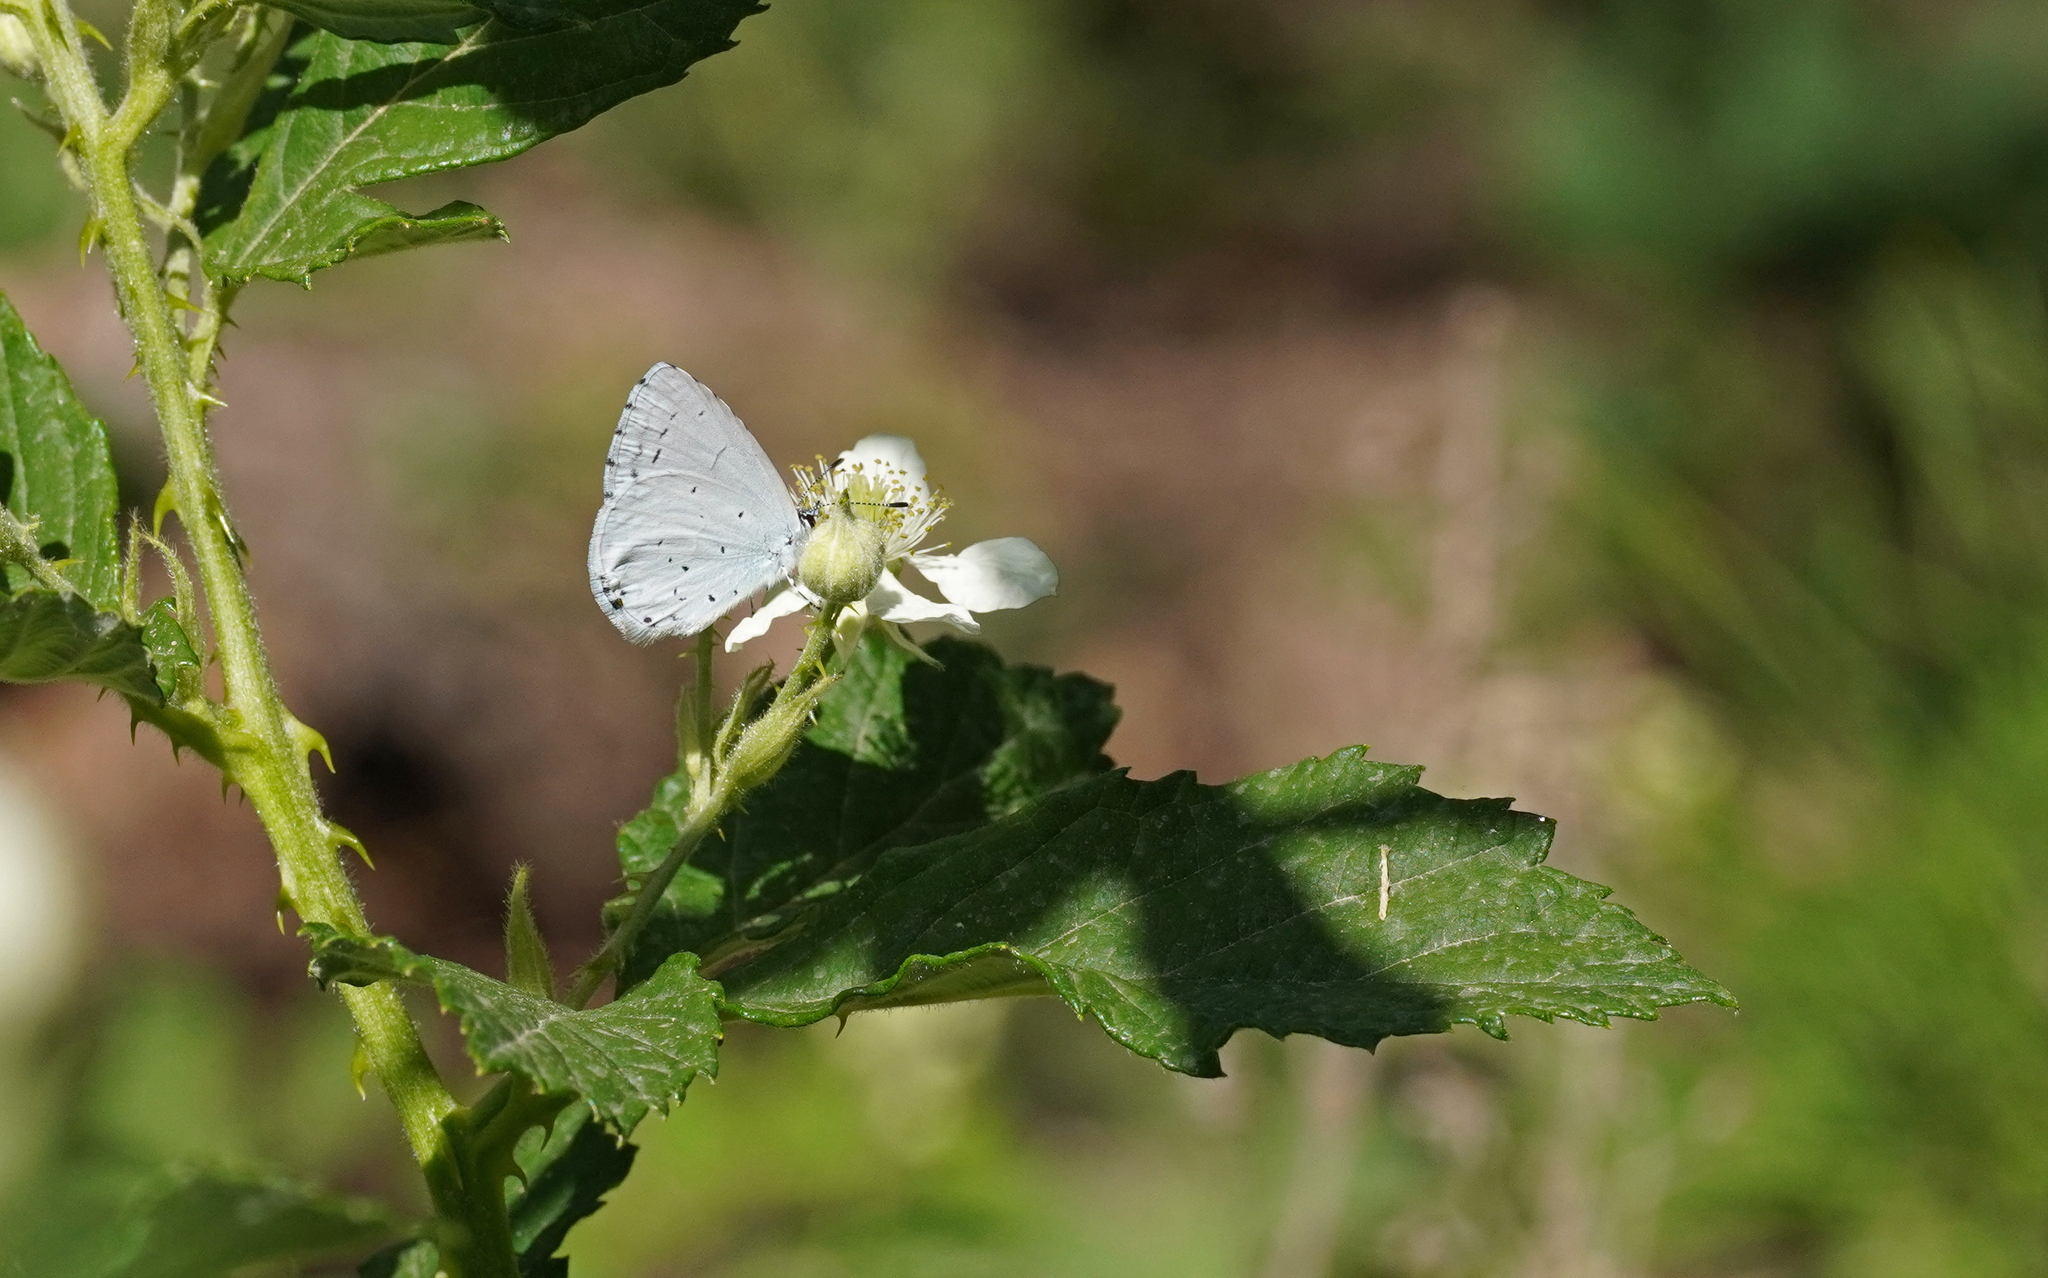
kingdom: Animalia
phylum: Arthropoda
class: Insecta
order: Lepidoptera
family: Lycaenidae
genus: Celastrina
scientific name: Celastrina argiolus
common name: Holly blue
